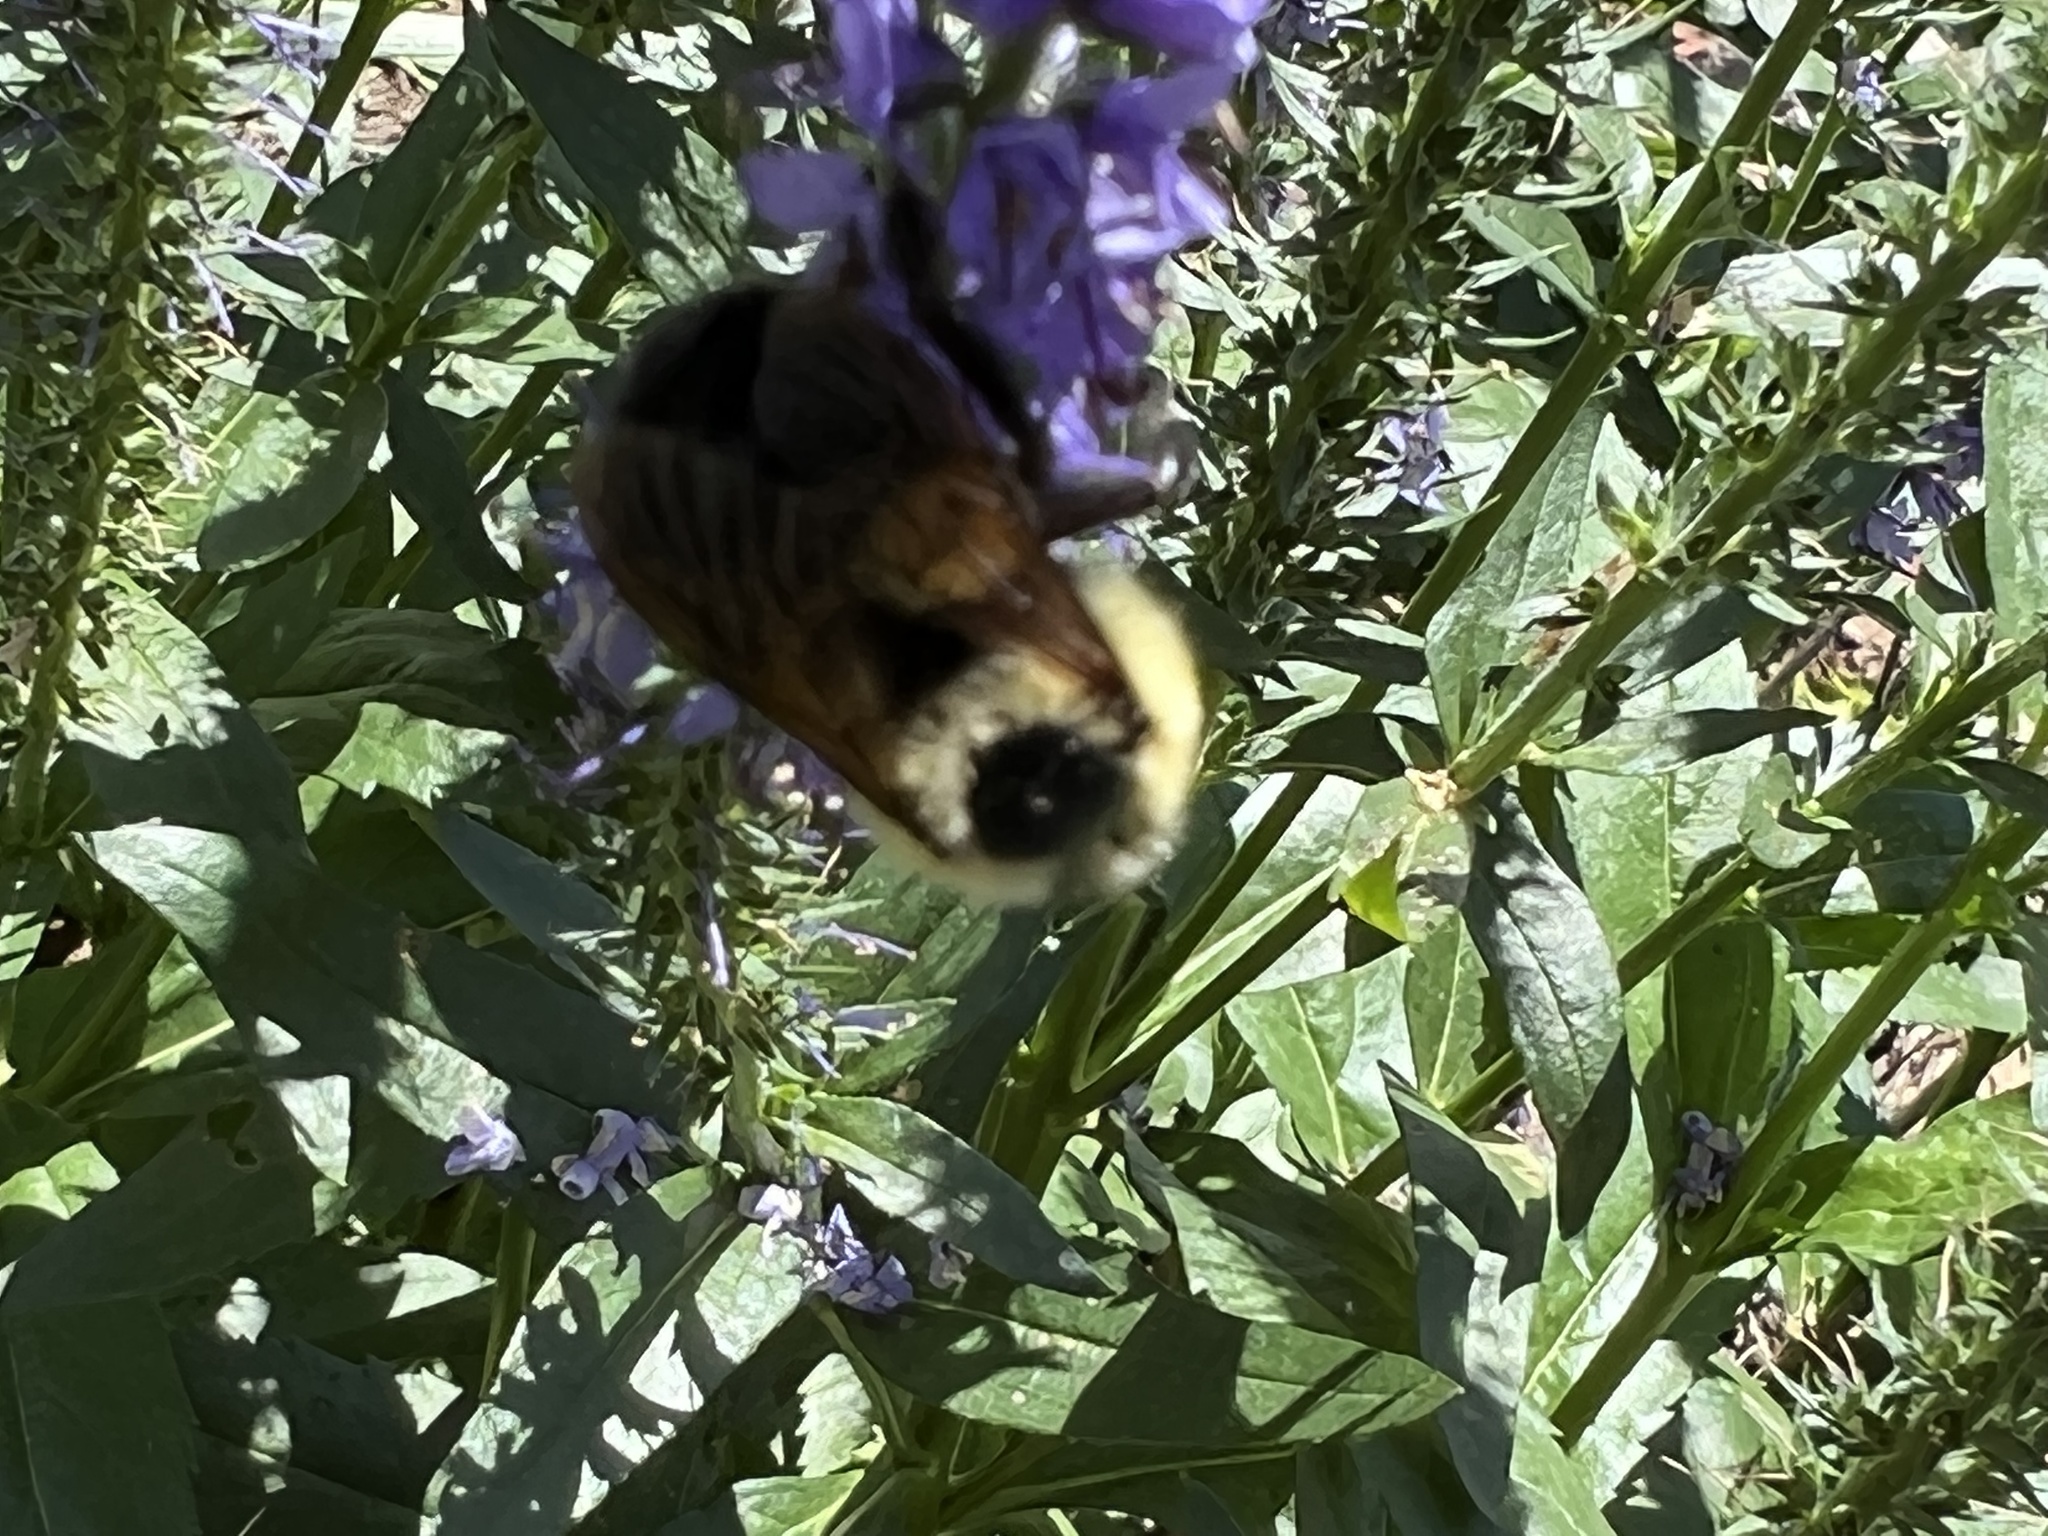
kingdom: Animalia
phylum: Arthropoda
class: Insecta
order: Hymenoptera
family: Apidae
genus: Bombus
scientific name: Bombus griseocollis
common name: Brown-belted bumble bee
